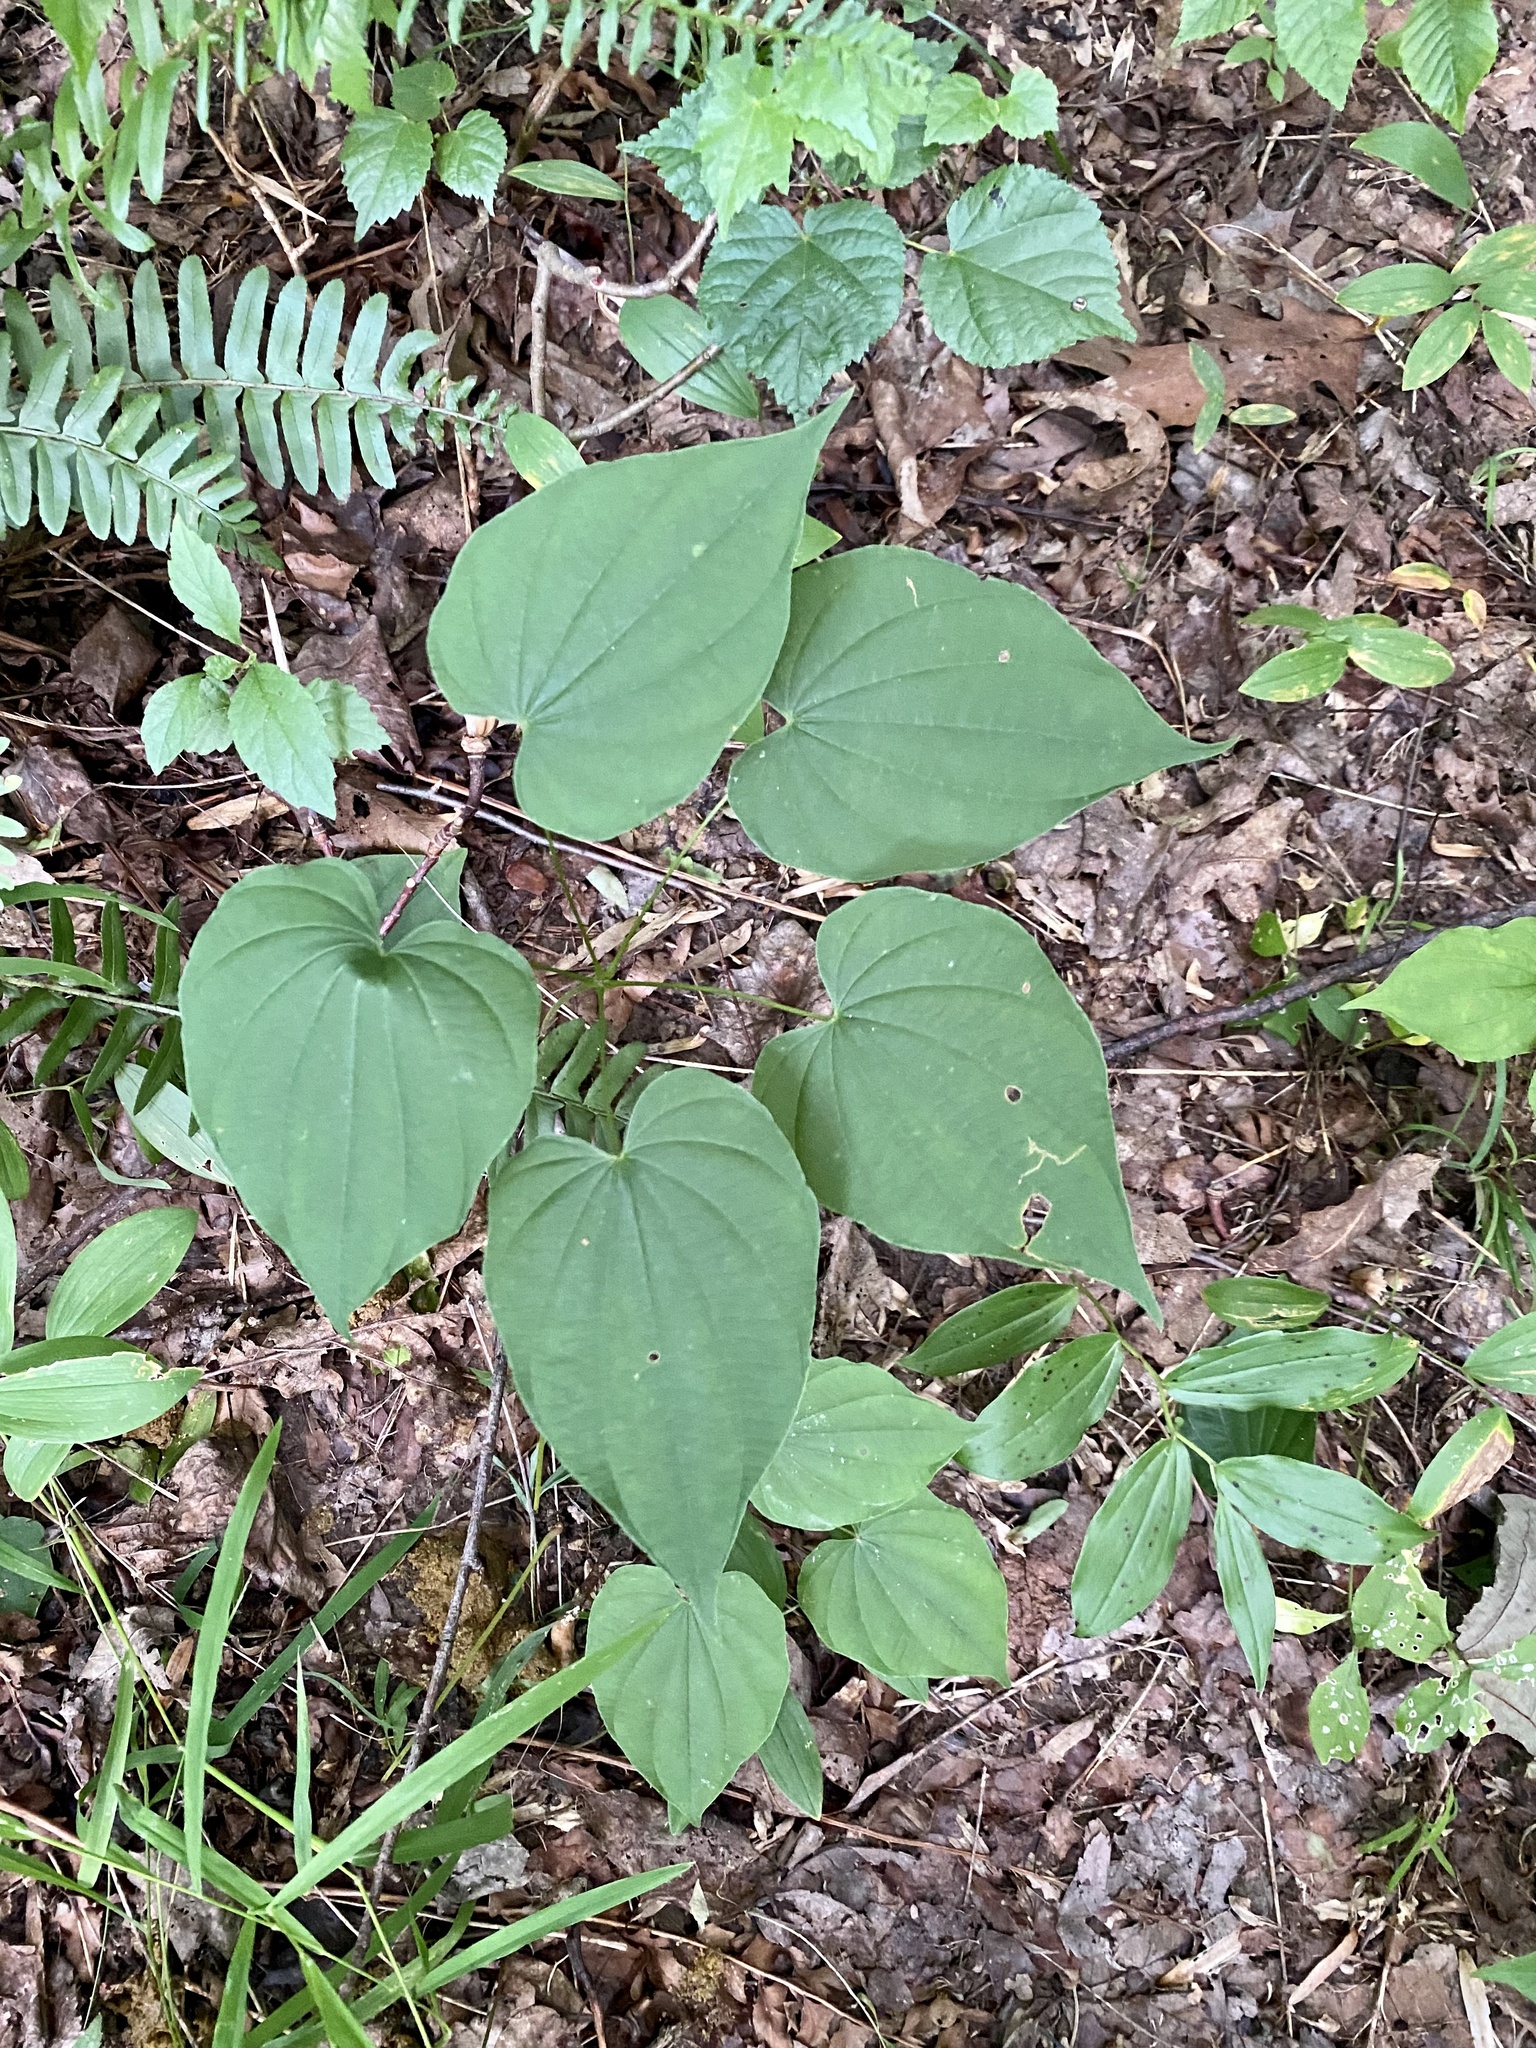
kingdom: Plantae
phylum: Tracheophyta
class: Liliopsida
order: Dioscoreales
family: Dioscoreaceae
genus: Dioscorea
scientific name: Dioscorea villosa
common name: Wild yam
